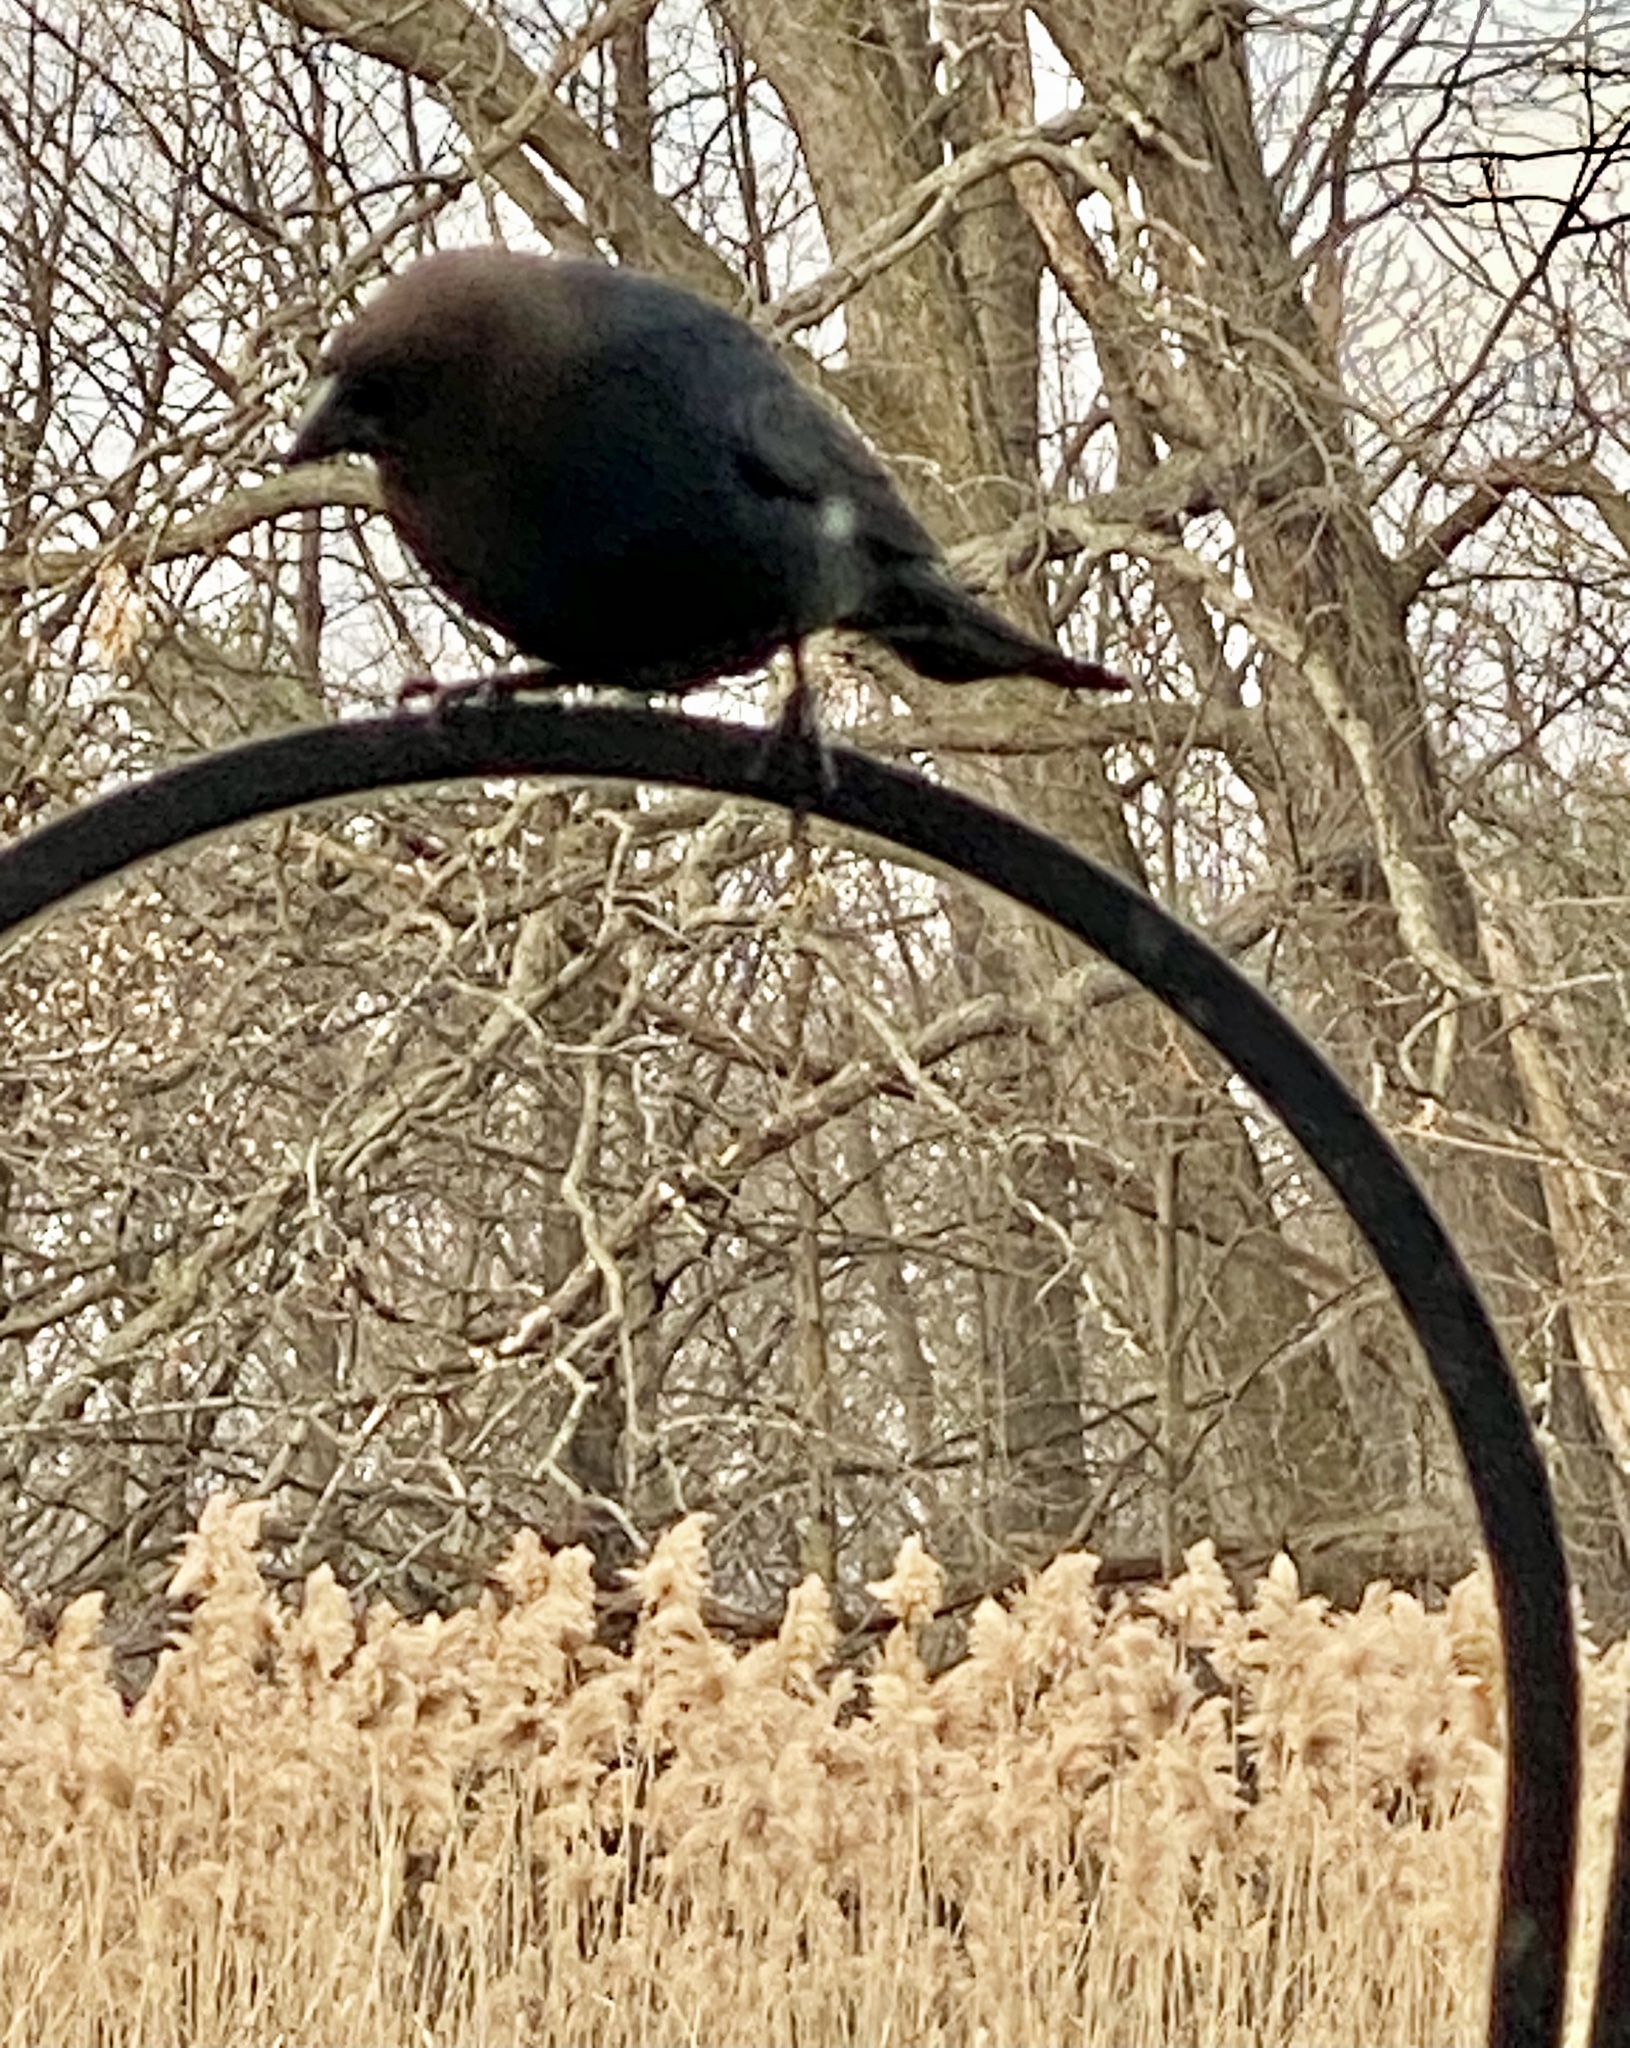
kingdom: Animalia
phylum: Chordata
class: Aves
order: Passeriformes
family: Icteridae
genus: Molothrus
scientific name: Molothrus ater
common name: Brown-headed cowbird
